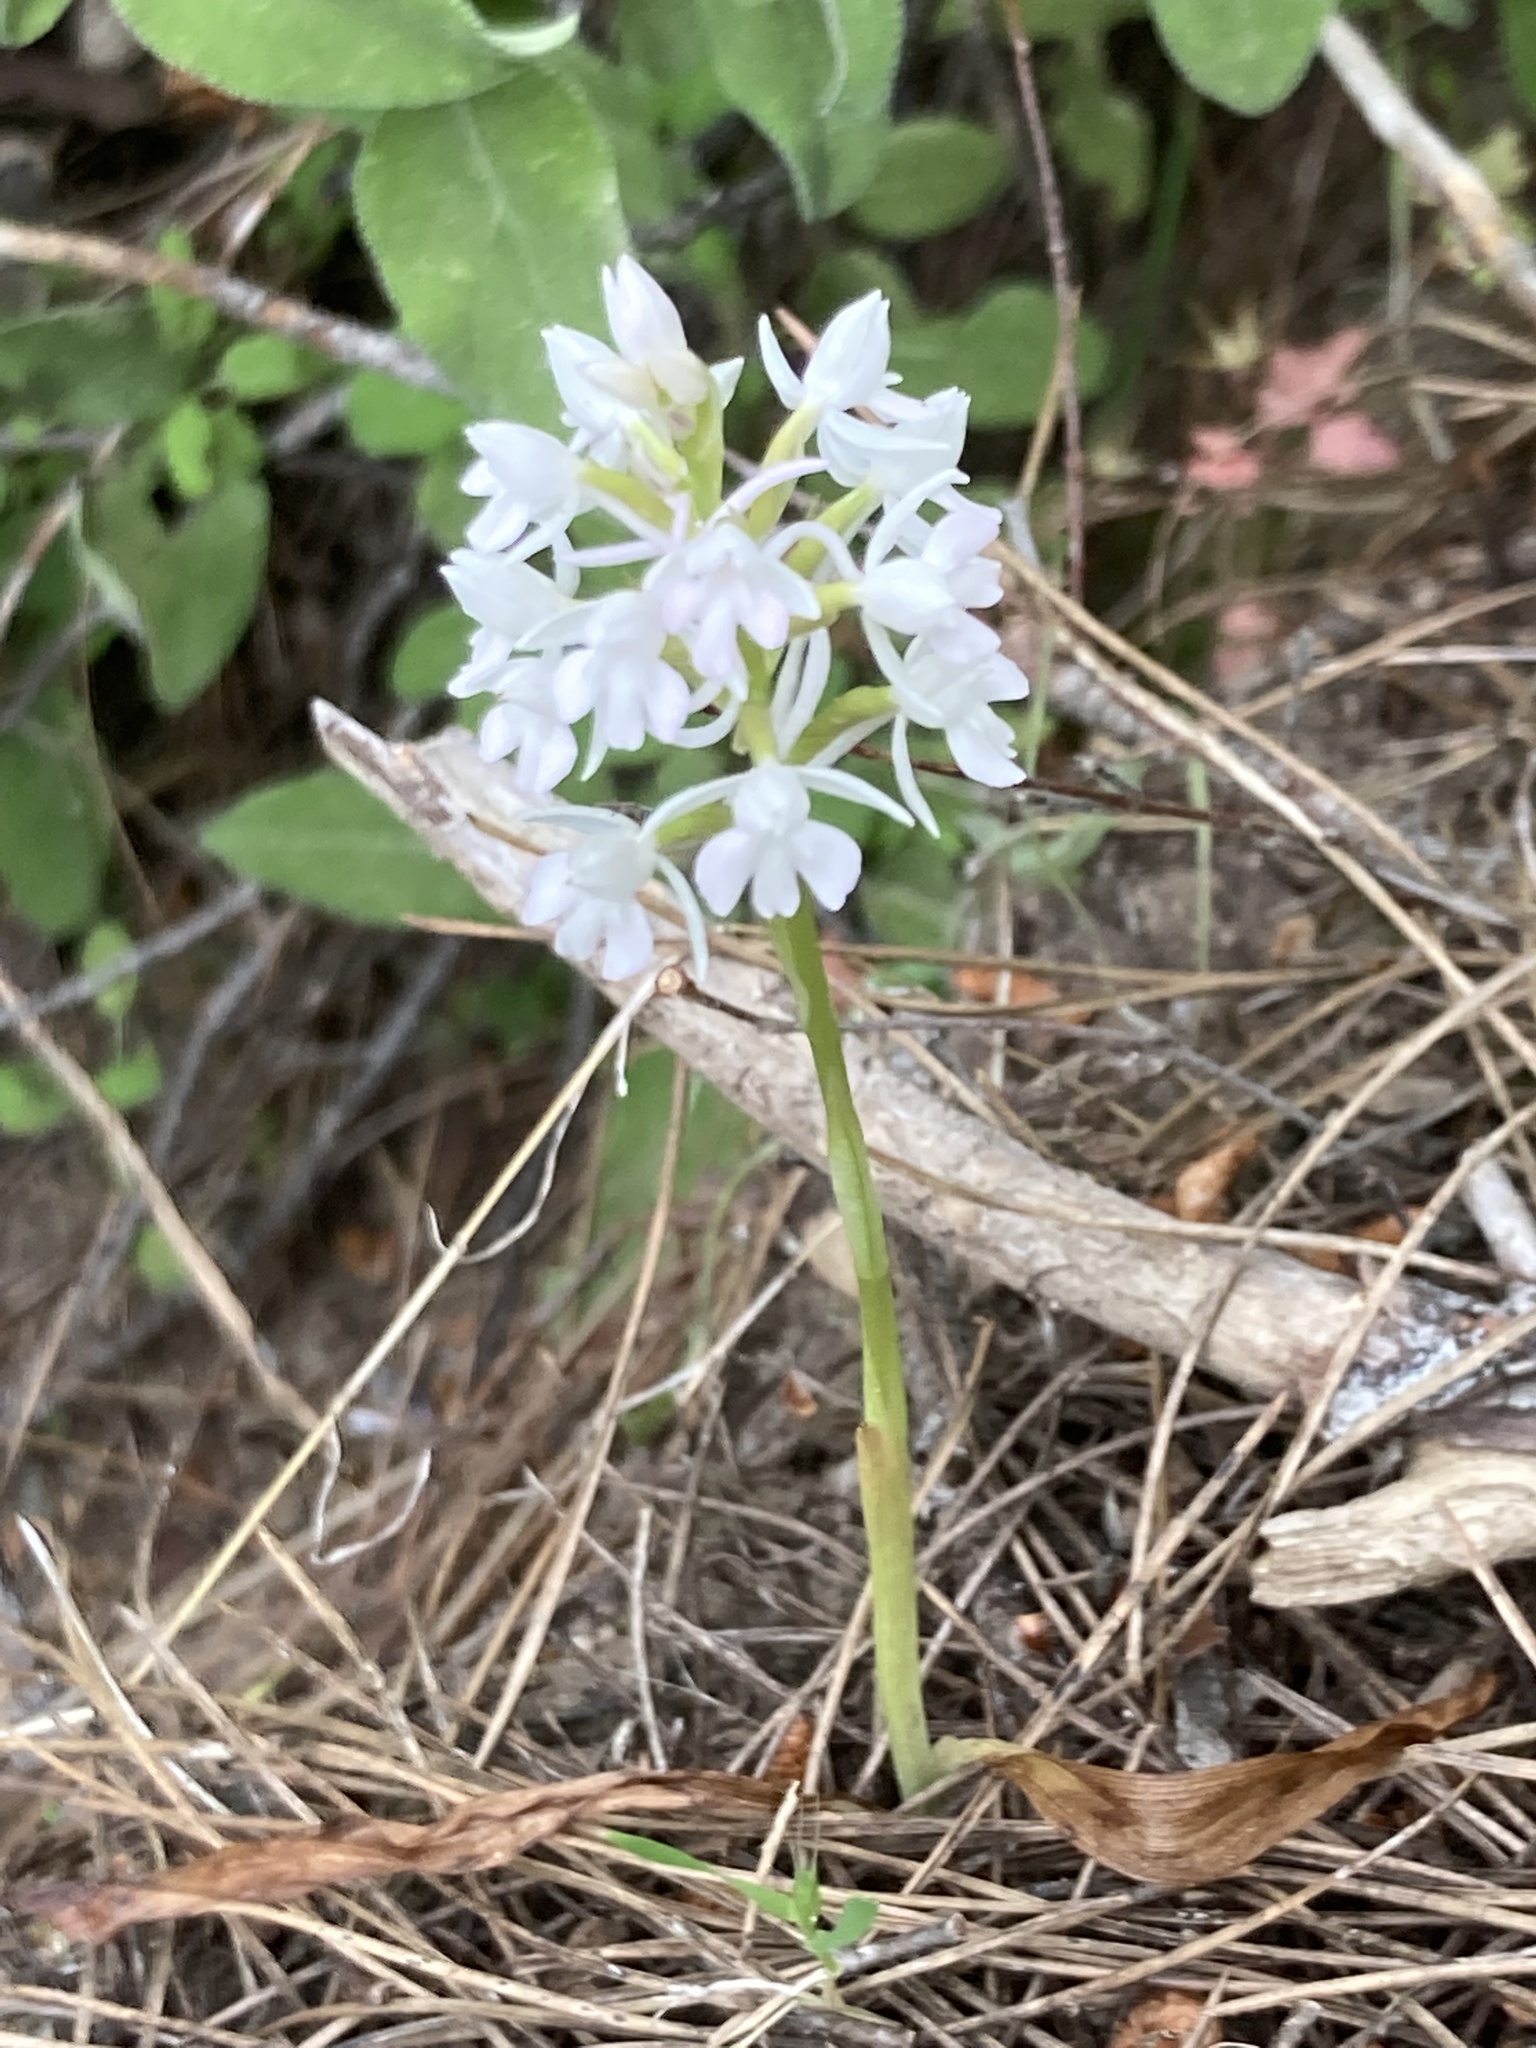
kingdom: Plantae
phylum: Tracheophyta
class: Liliopsida
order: Asparagales
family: Orchidaceae
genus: Anacamptis
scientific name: Anacamptis pyramidalis
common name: Pyramidal orchid
